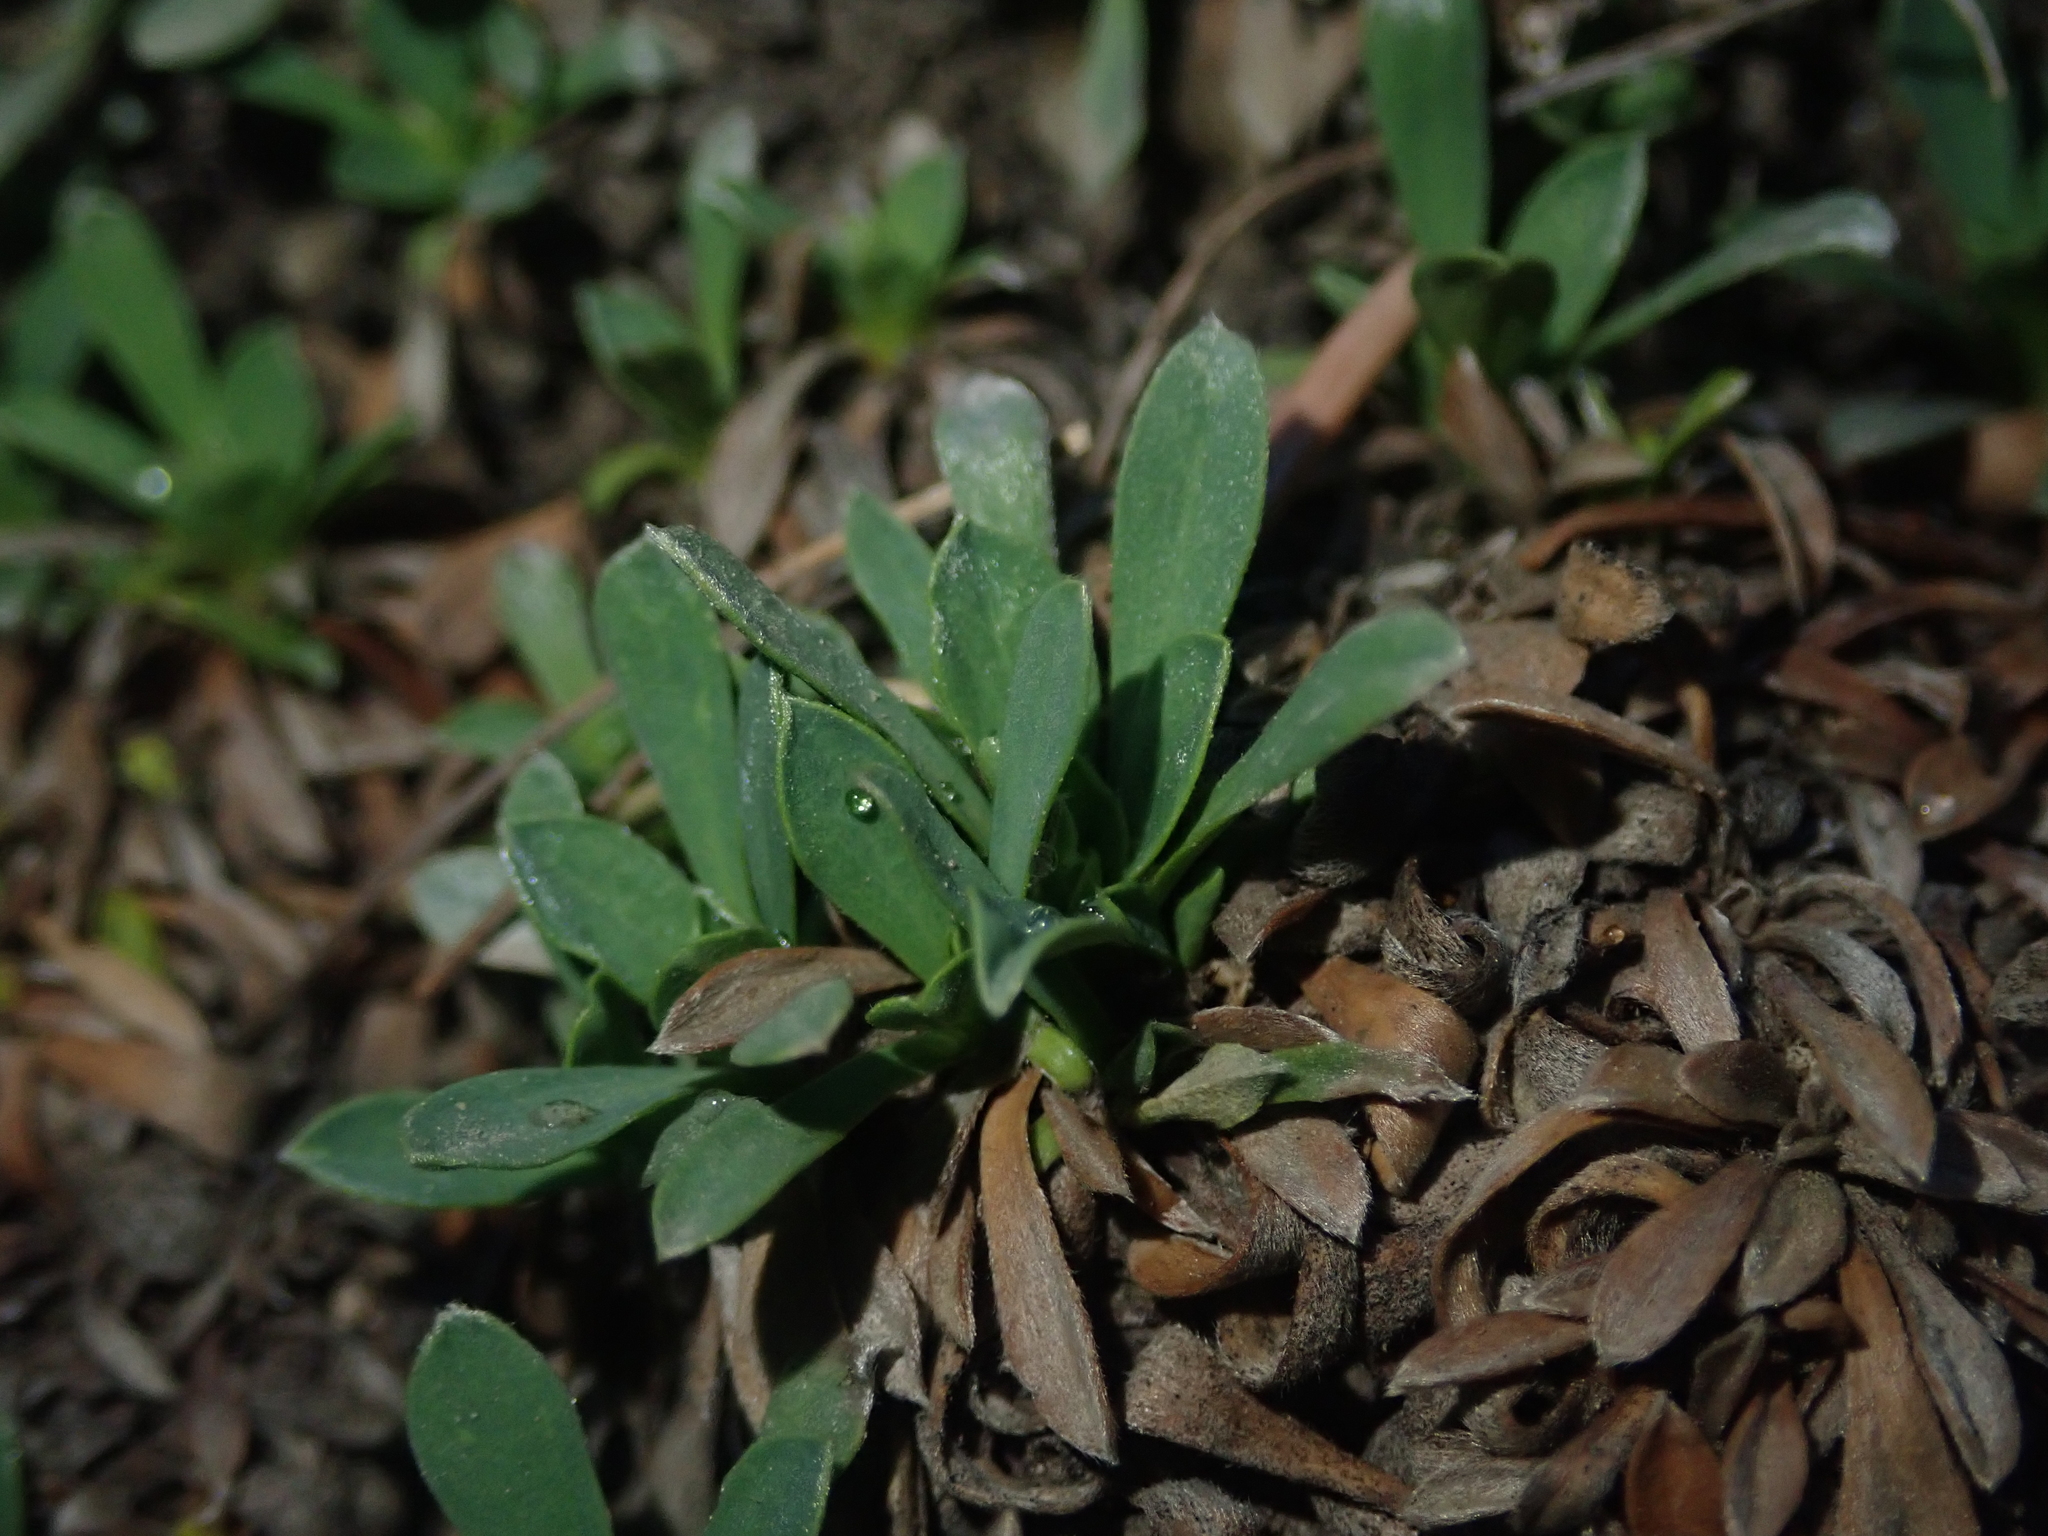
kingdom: Plantae
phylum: Tracheophyta
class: Magnoliopsida
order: Rosales
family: Rosaceae
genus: Petrophytum
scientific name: Petrophytum caespitosum
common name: Mat rockspirea
